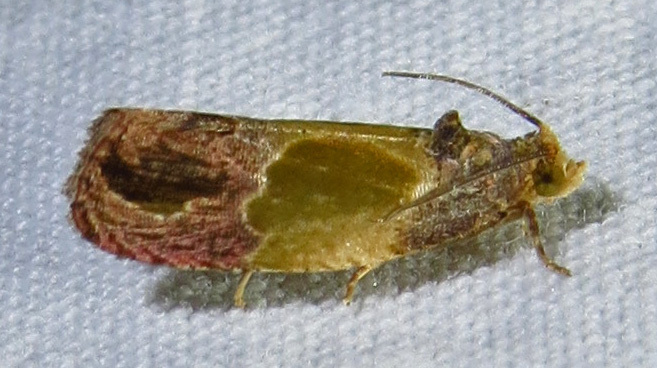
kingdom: Animalia
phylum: Arthropoda
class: Insecta
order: Lepidoptera
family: Tortricidae
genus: Eumarozia
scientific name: Eumarozia malachitana
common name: Sculptured moth
